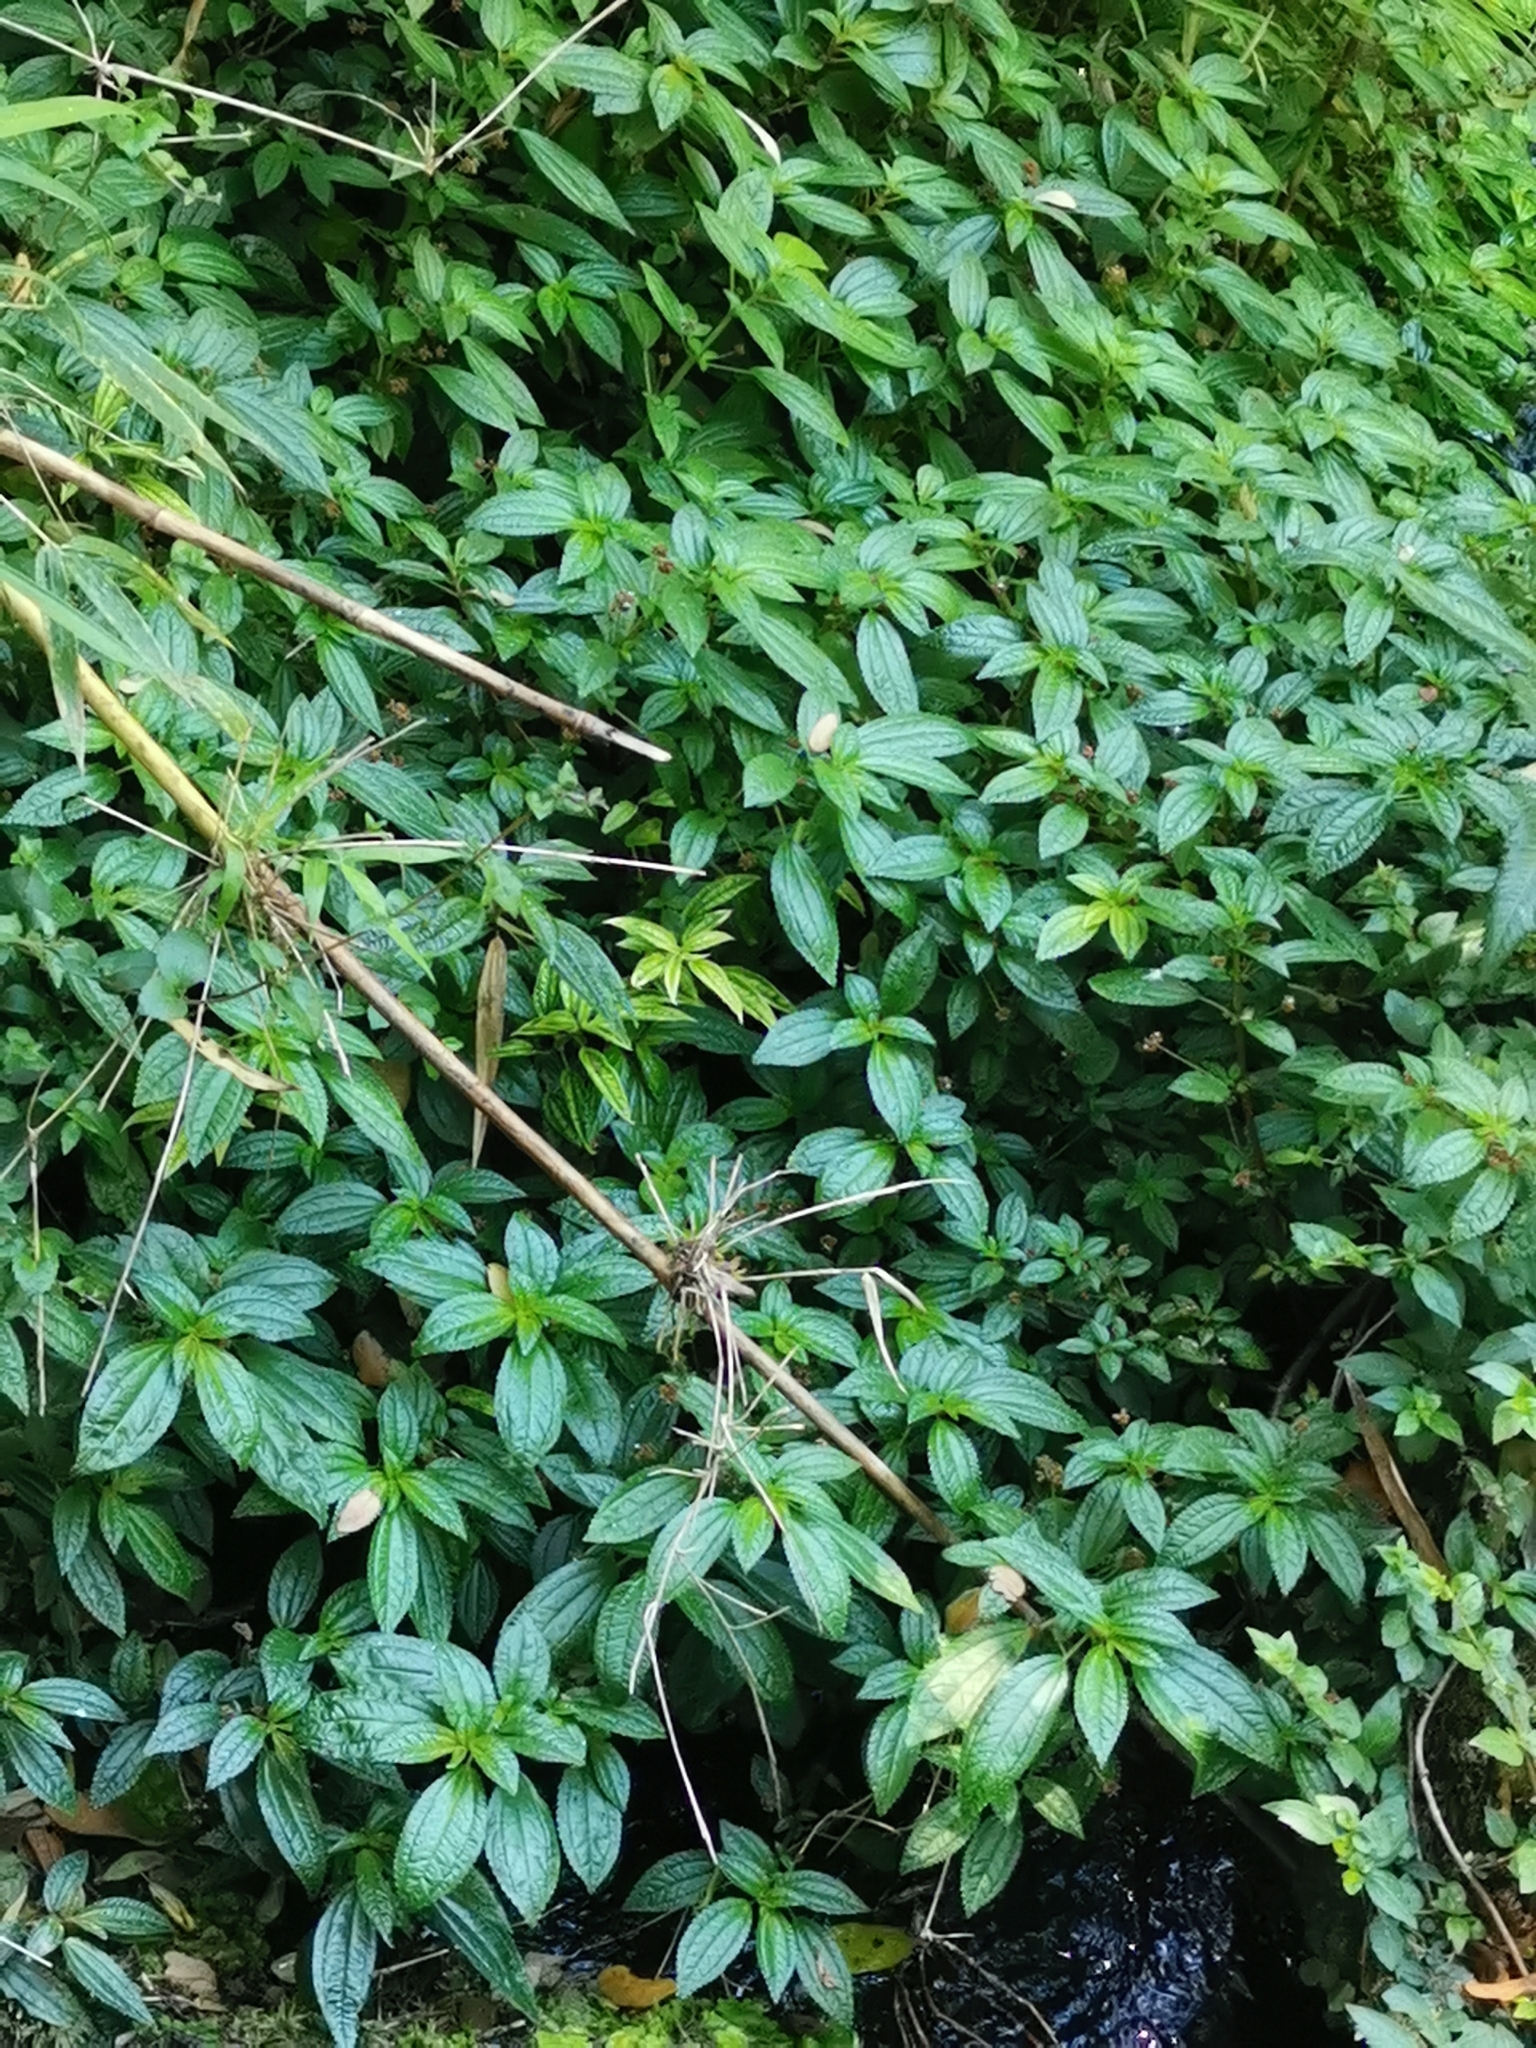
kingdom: Plantae
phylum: Tracheophyta
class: Magnoliopsida
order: Rosales
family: Urticaceae
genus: Pilea
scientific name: Pilea elegans
